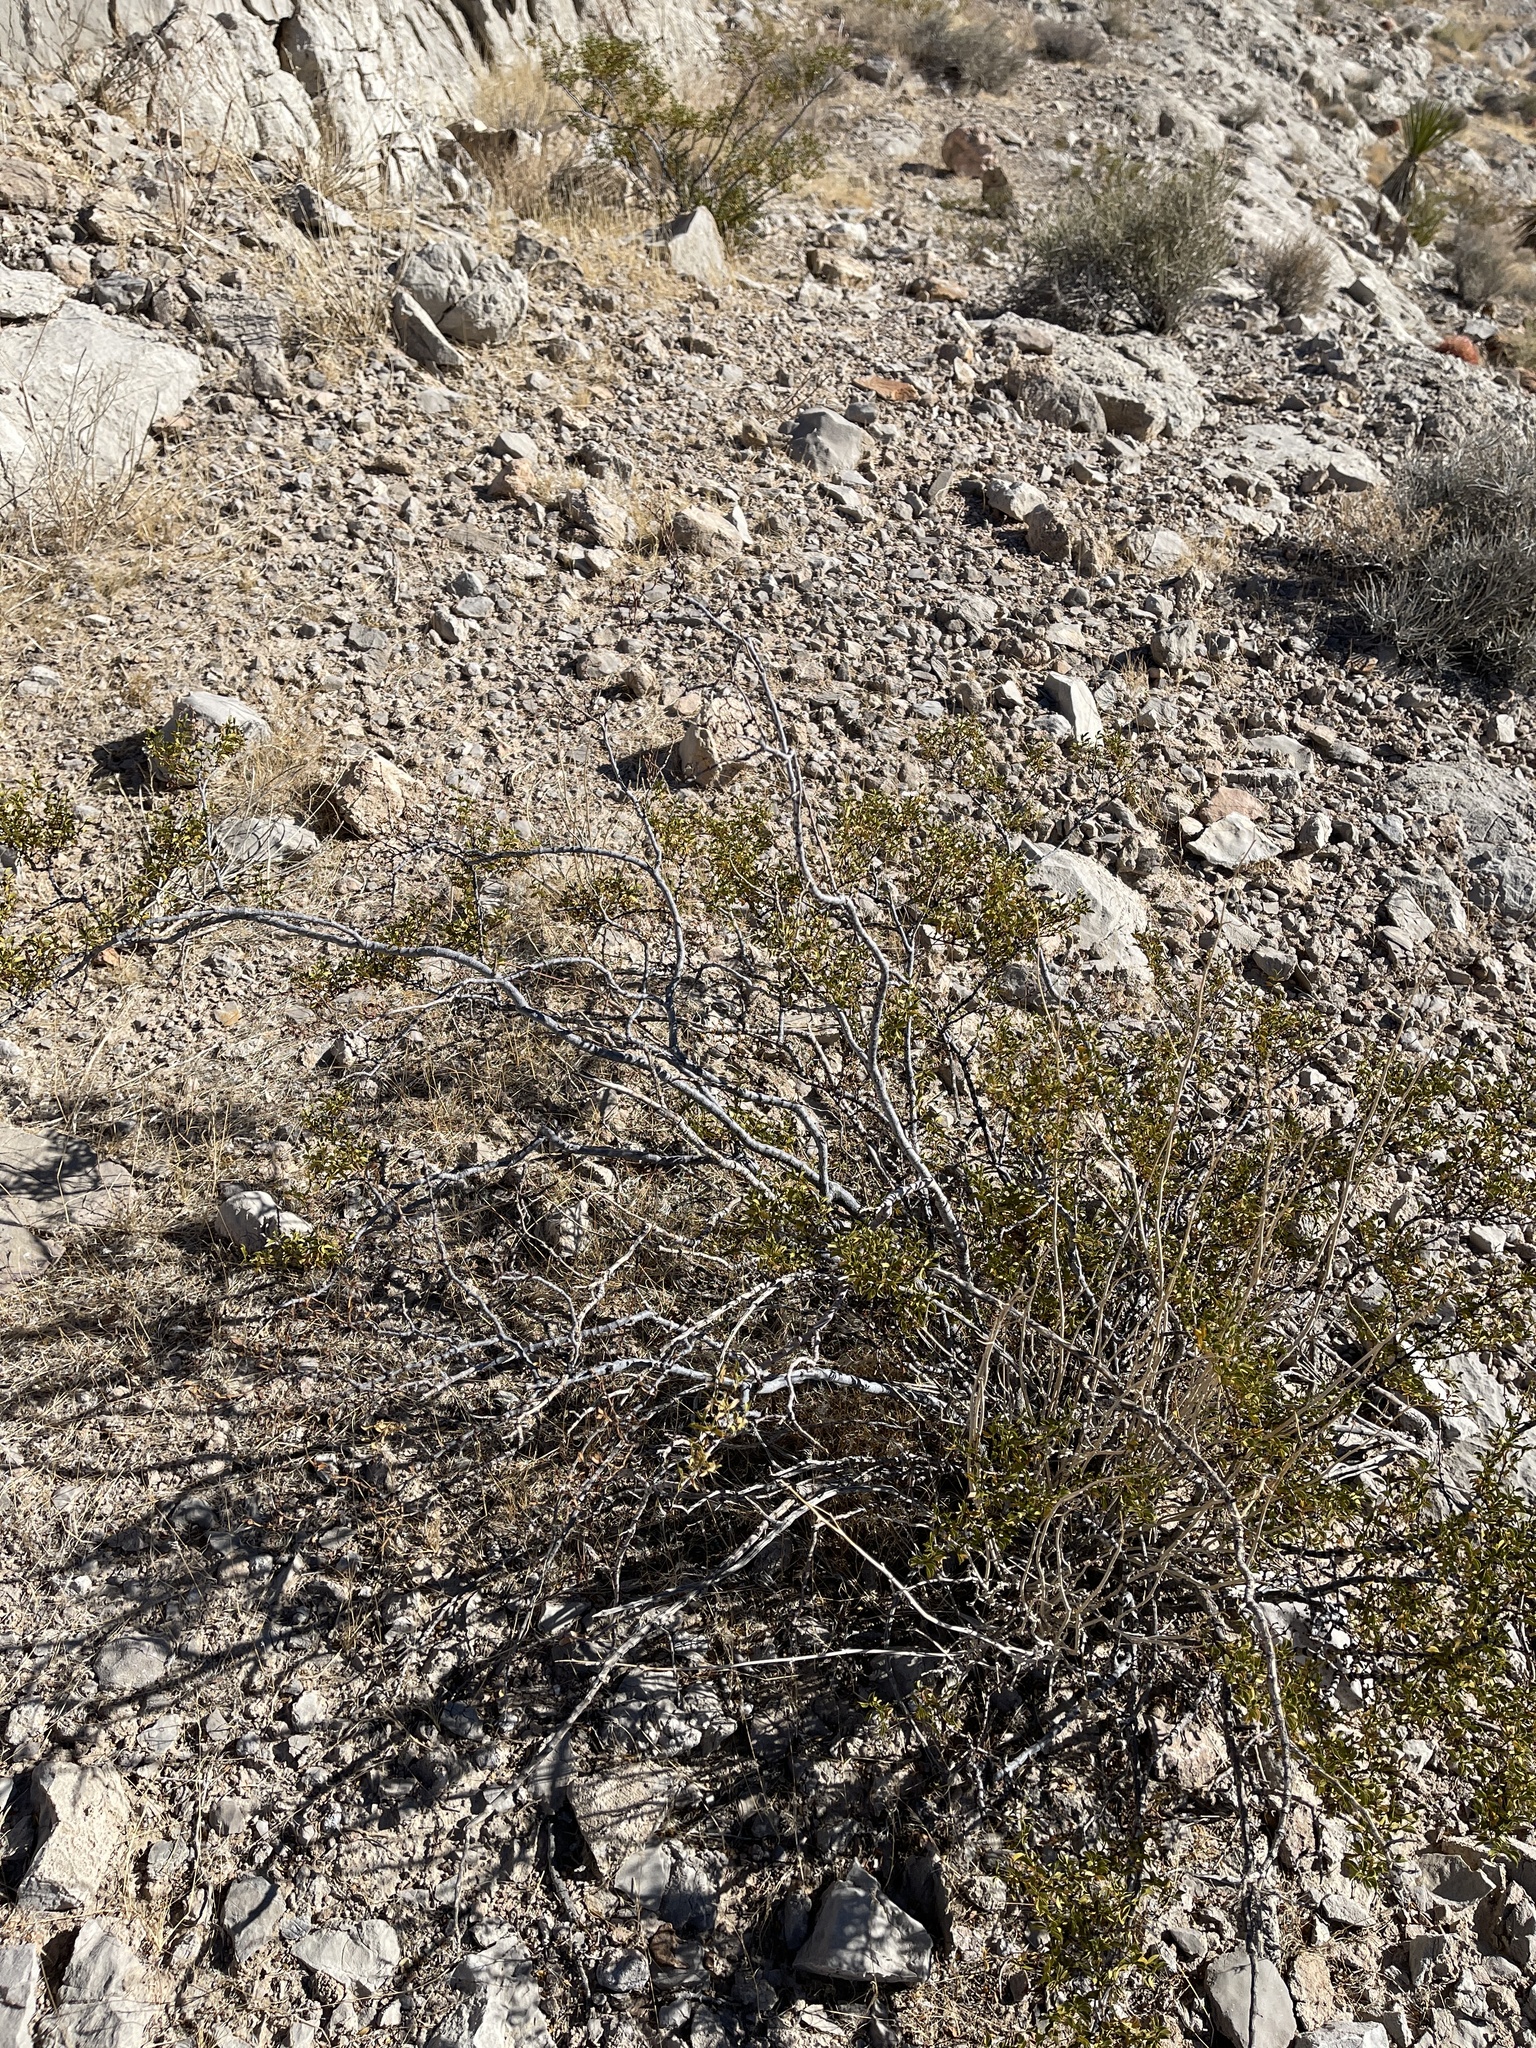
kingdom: Plantae
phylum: Tracheophyta
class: Magnoliopsida
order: Zygophyllales
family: Zygophyllaceae
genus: Larrea
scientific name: Larrea tridentata
